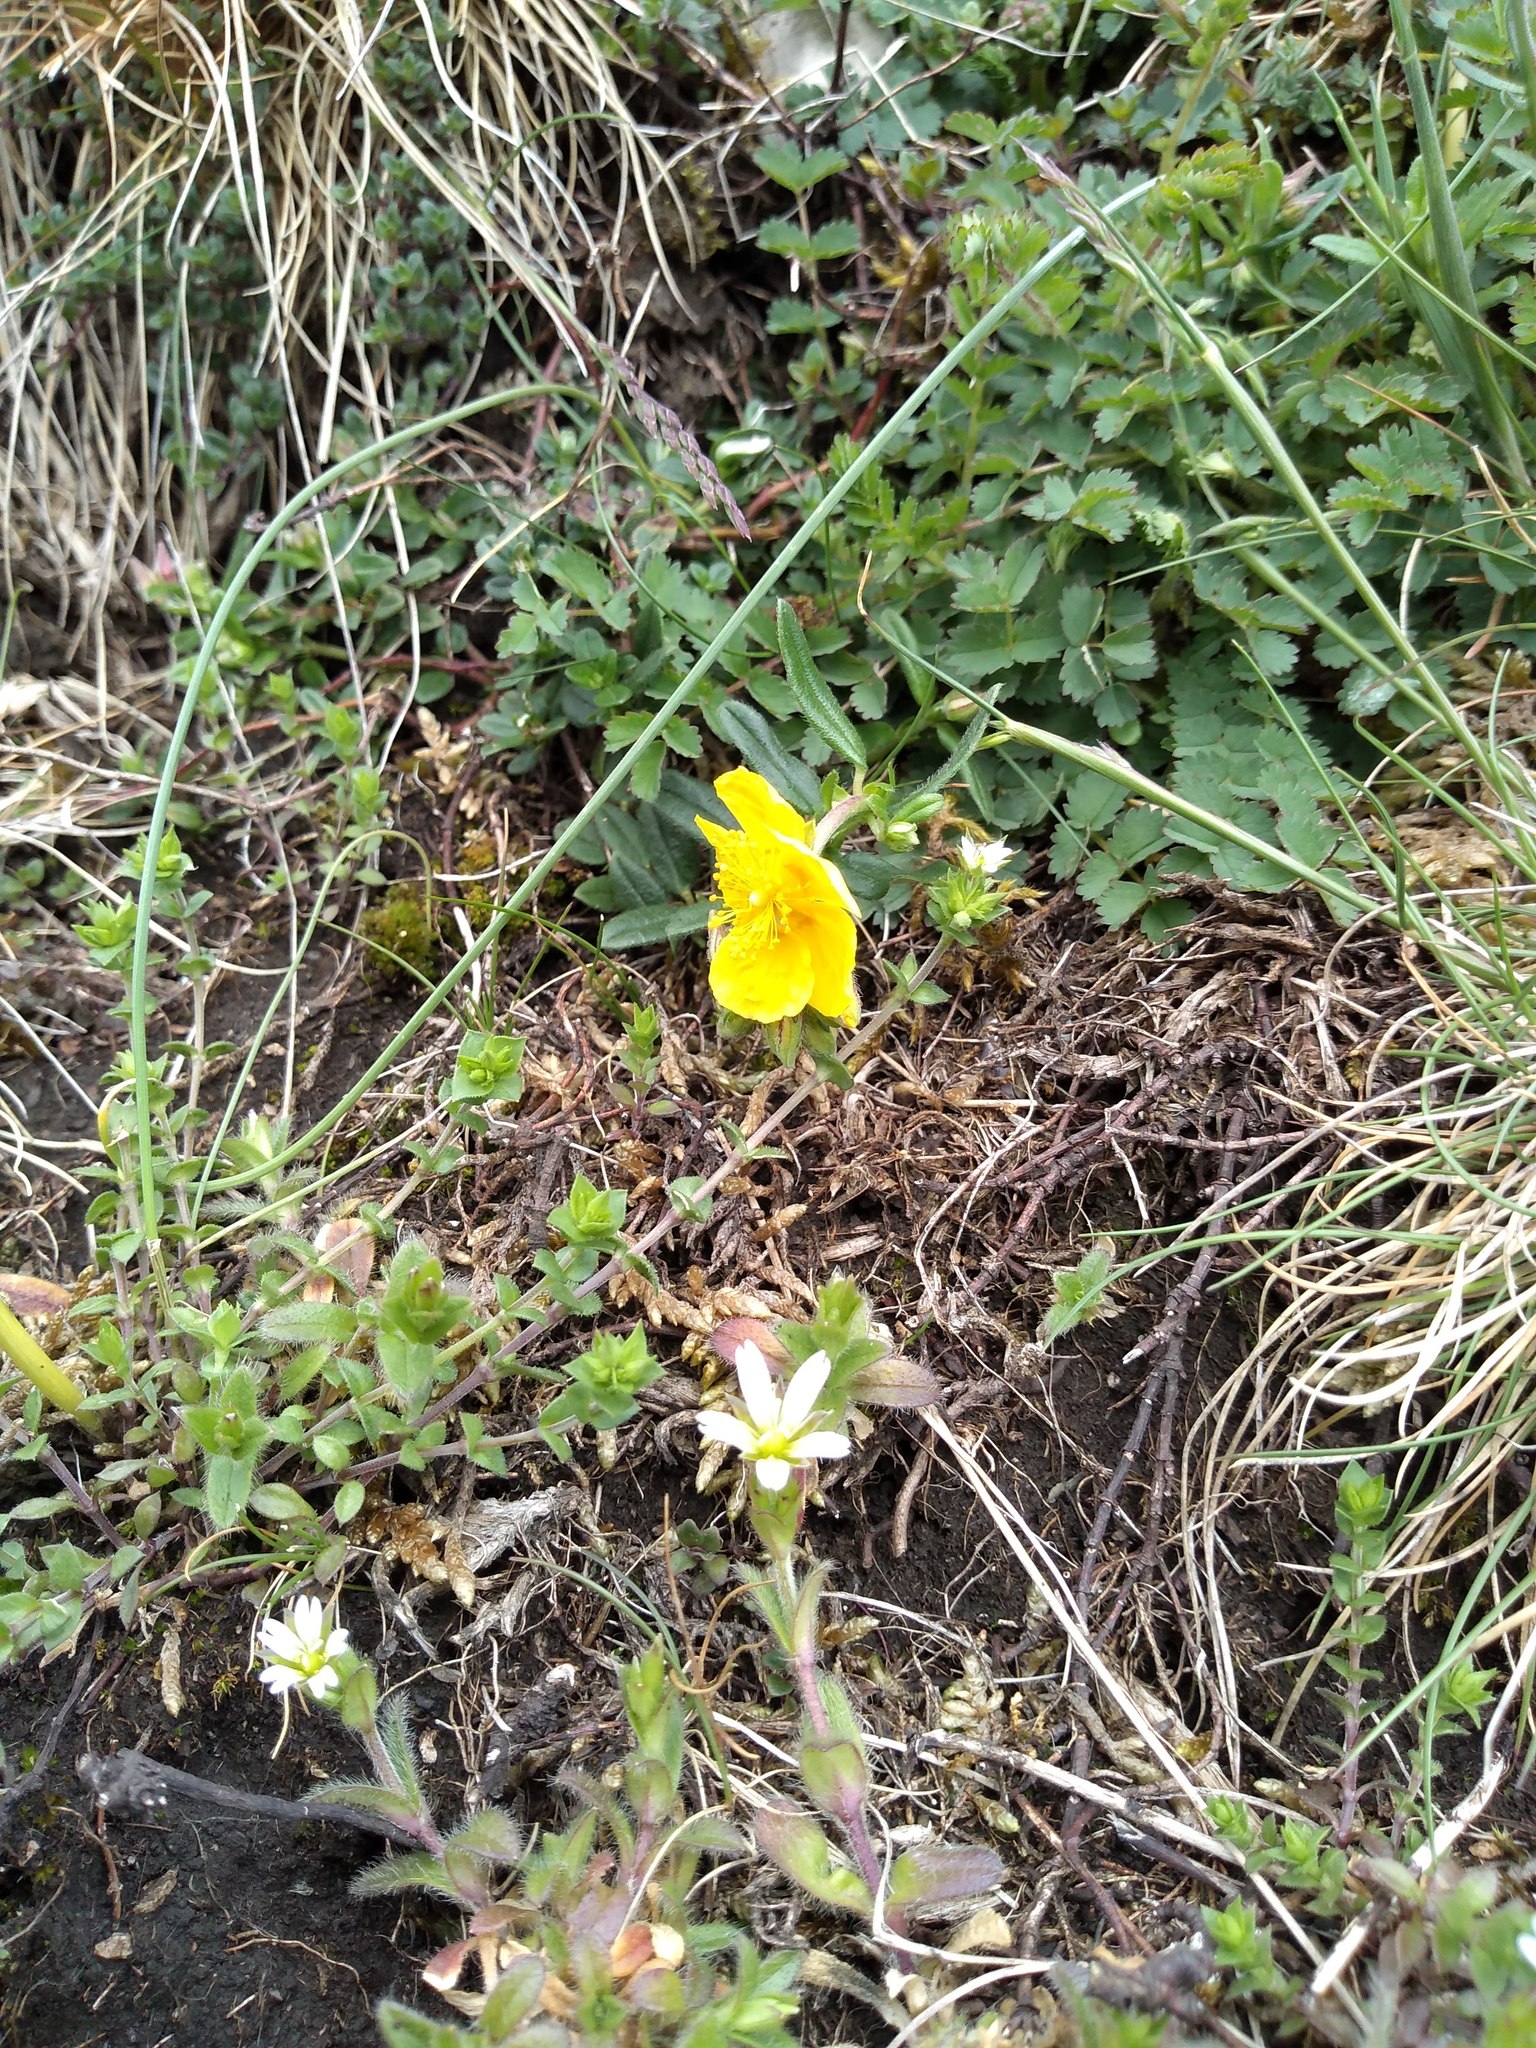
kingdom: Plantae
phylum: Tracheophyta
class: Magnoliopsida
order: Malvales
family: Cistaceae
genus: Helianthemum
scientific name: Helianthemum nummularium
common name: Common rock-rose
